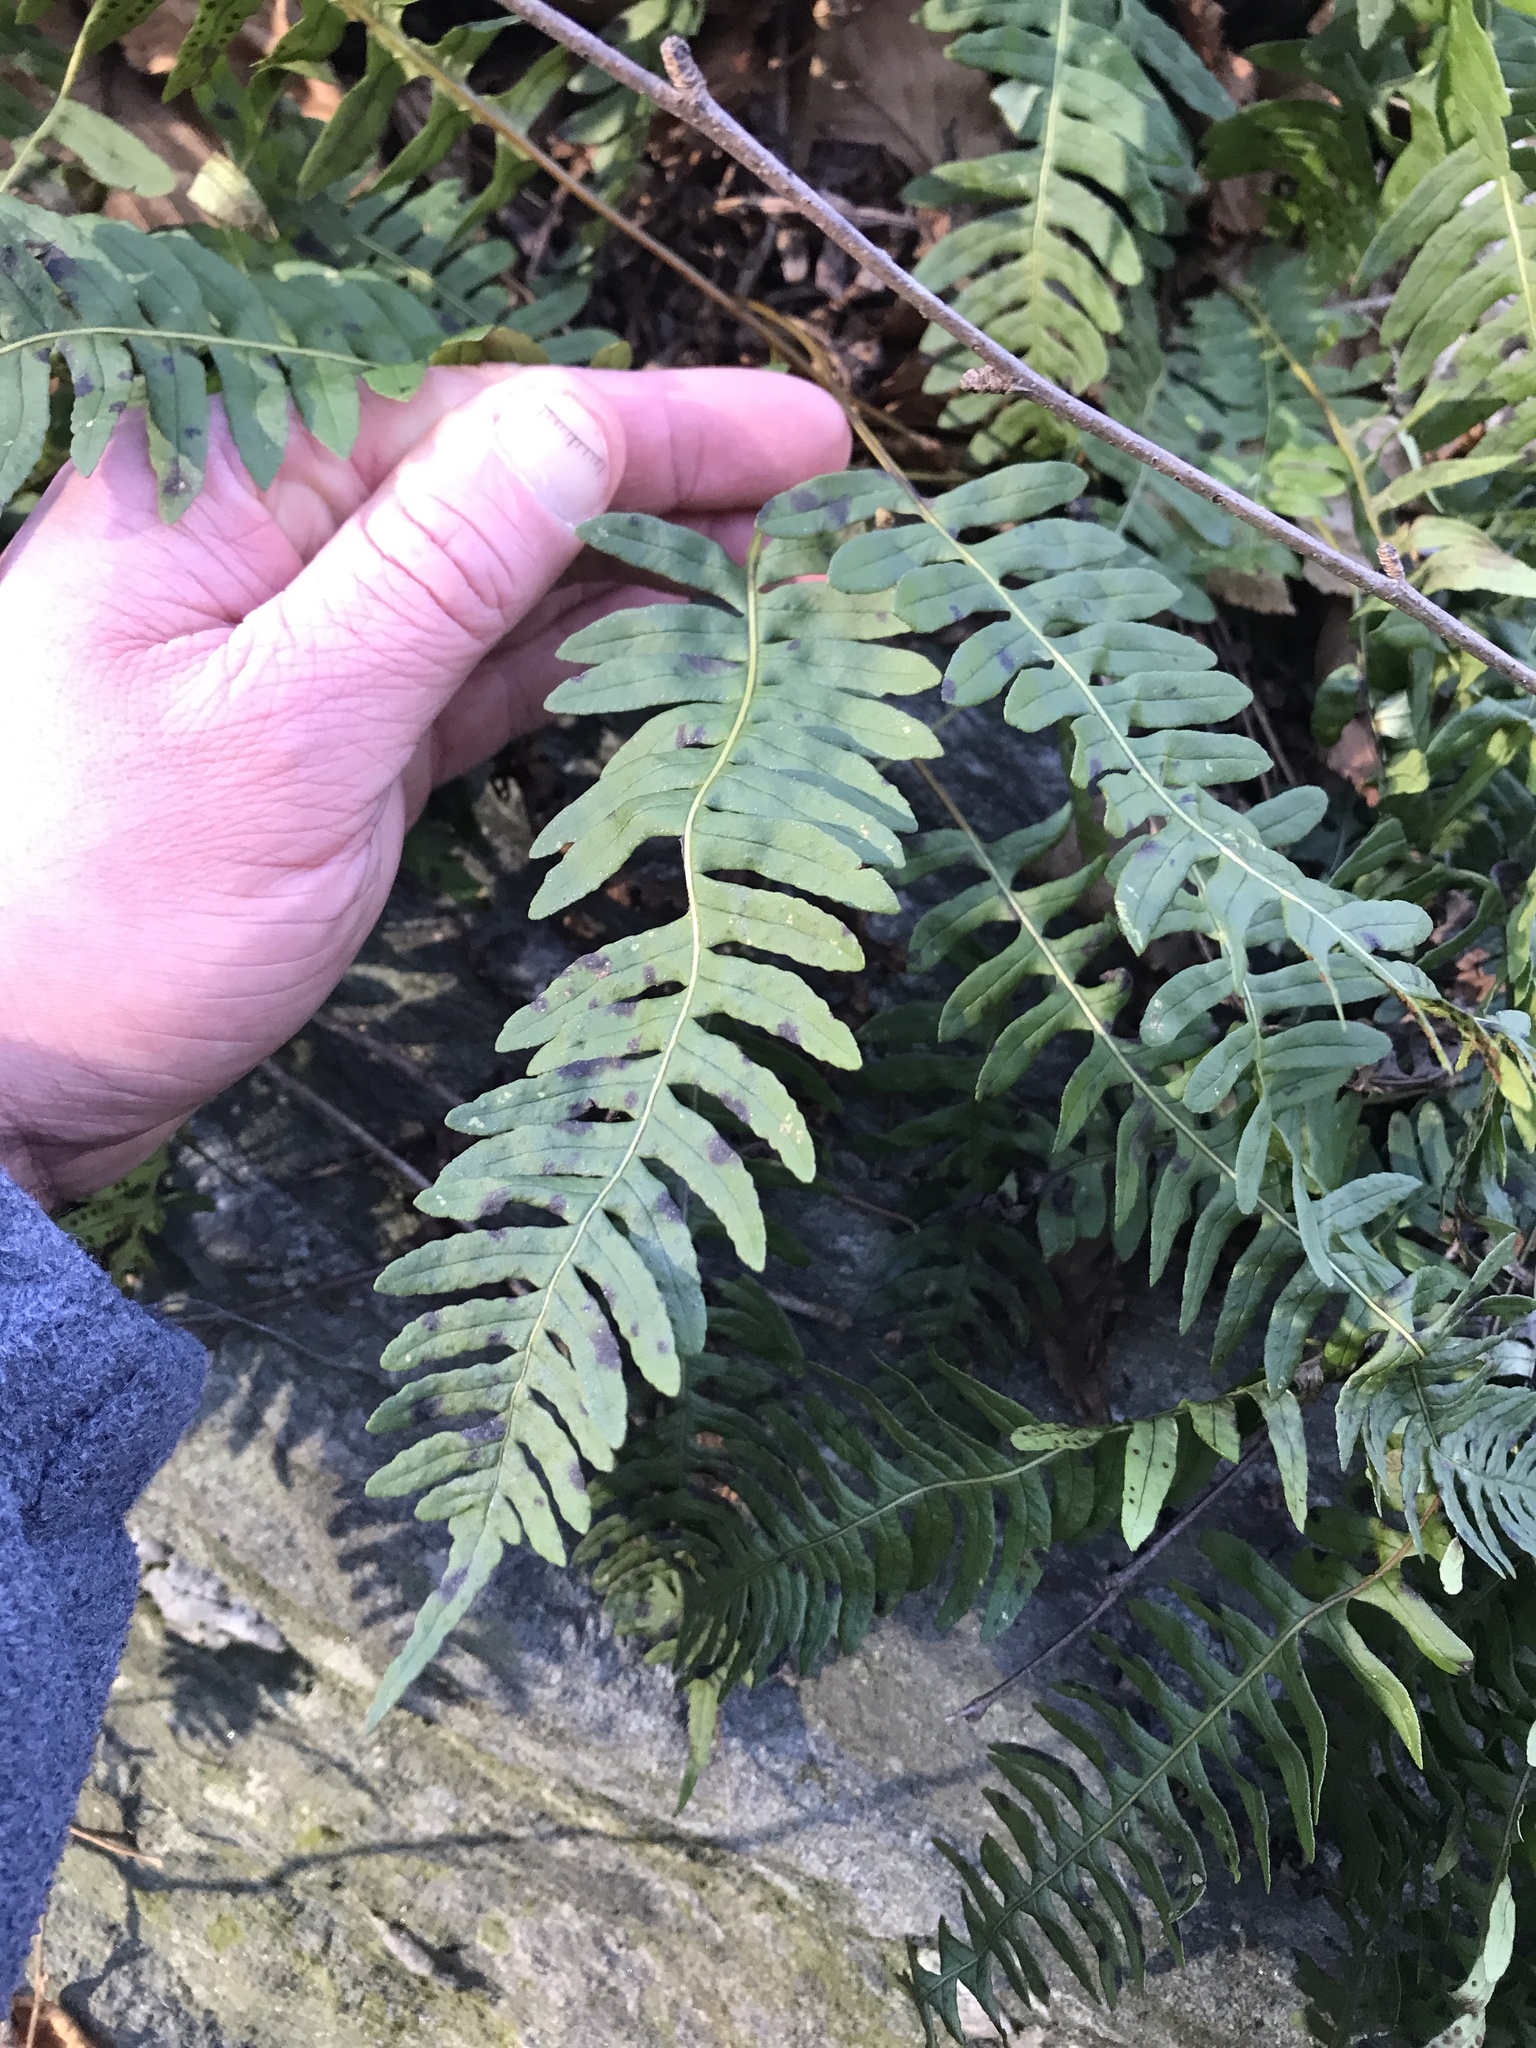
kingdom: Plantae
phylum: Tracheophyta
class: Polypodiopsida
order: Polypodiales
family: Polypodiaceae
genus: Polypodium
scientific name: Polypodium virginianum
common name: American wall fern
